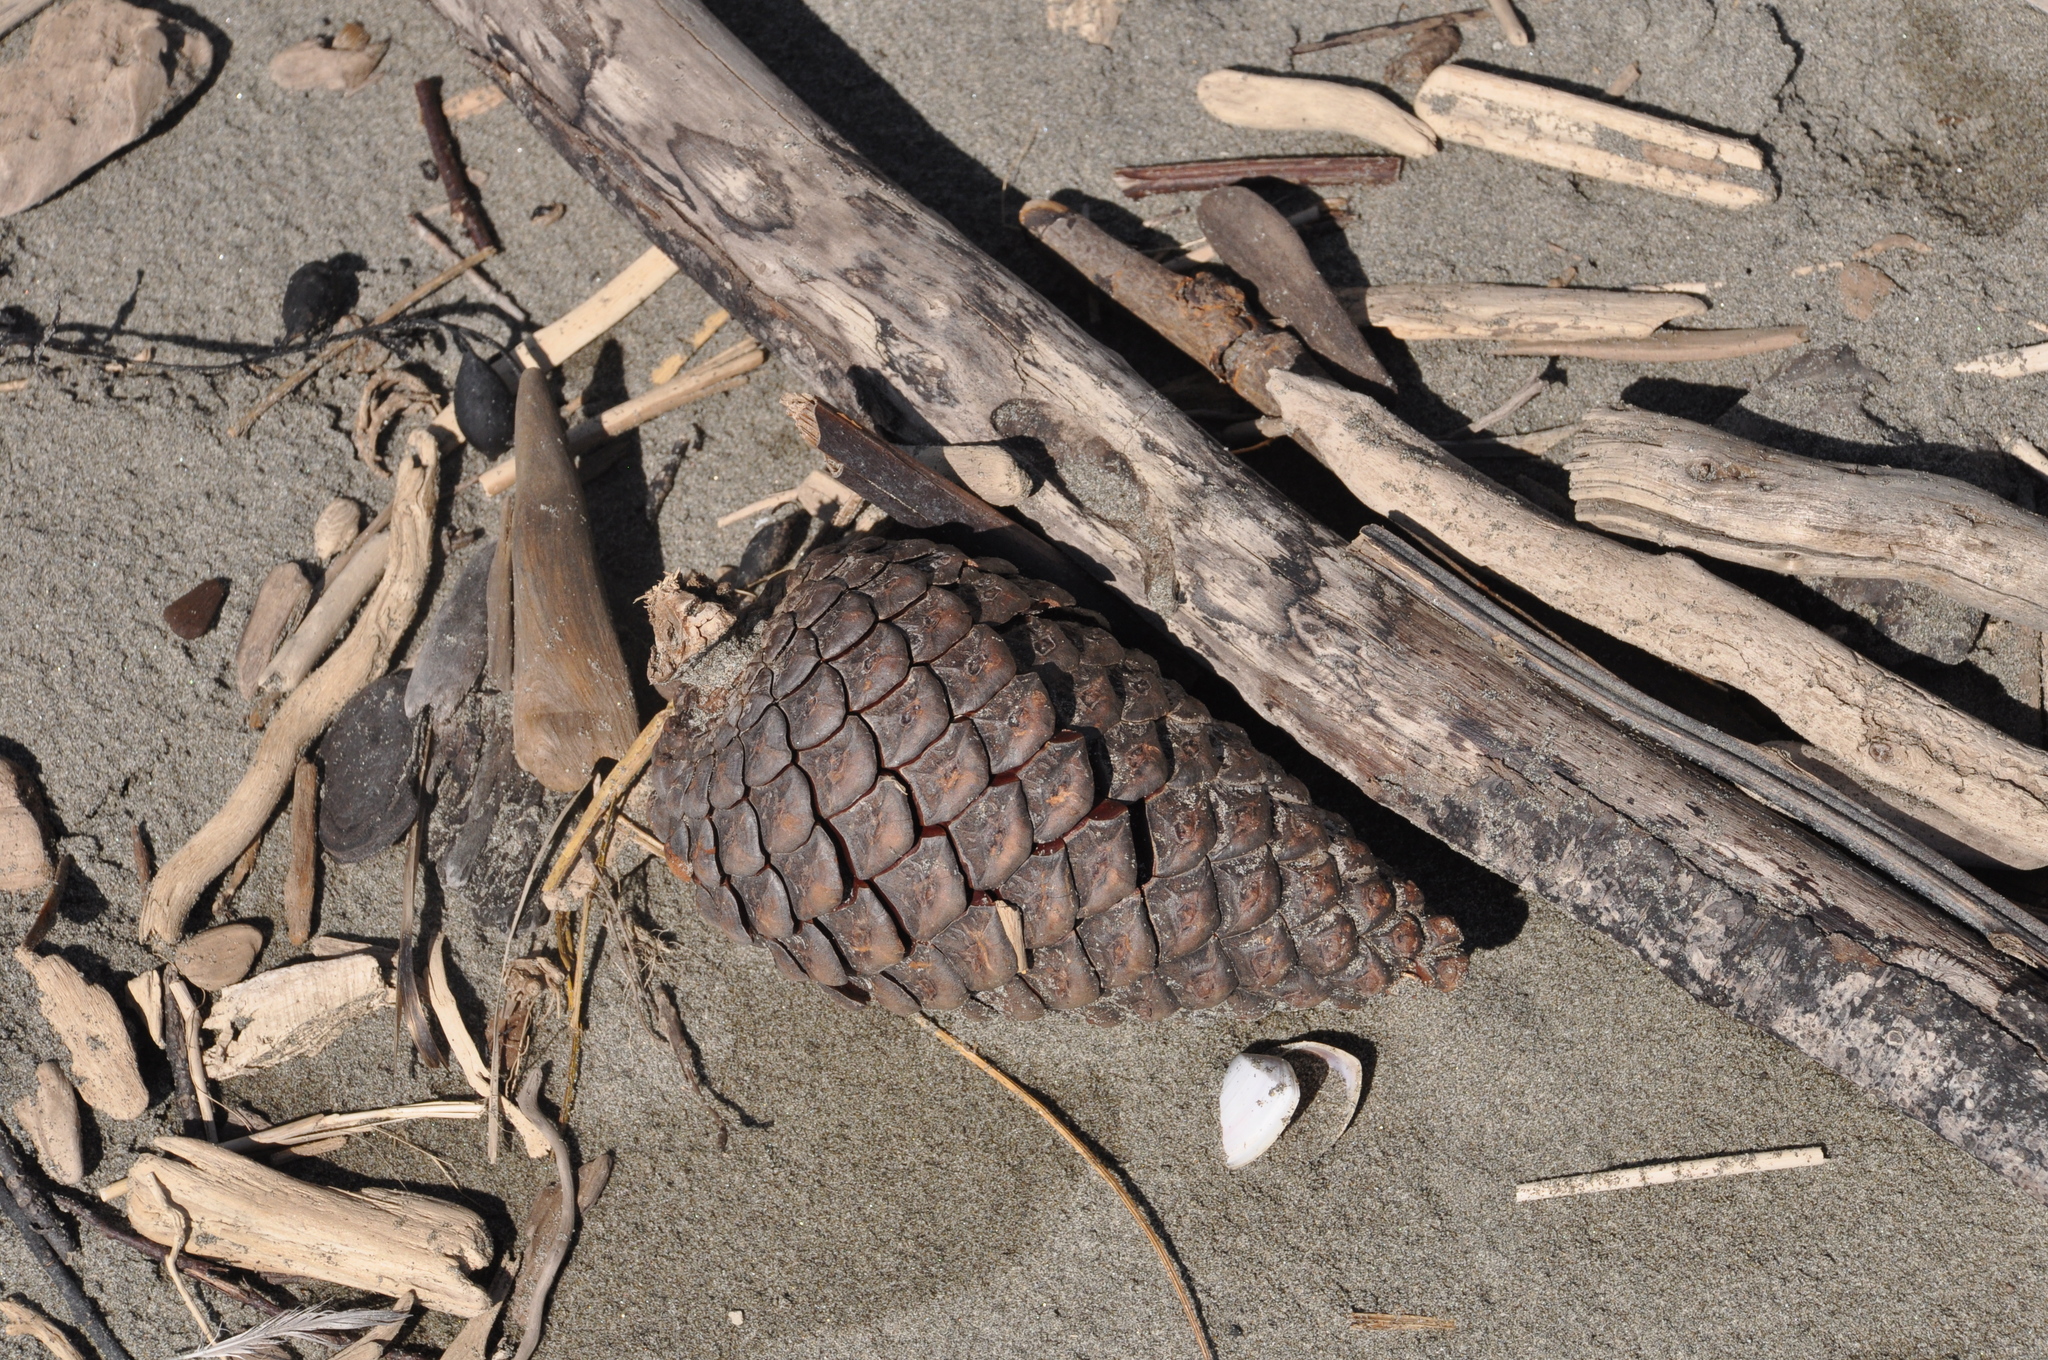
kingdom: Plantae
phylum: Tracheophyta
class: Pinopsida
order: Pinales
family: Pinaceae
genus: Pinus
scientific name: Pinus radiata
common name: Monterey pine
